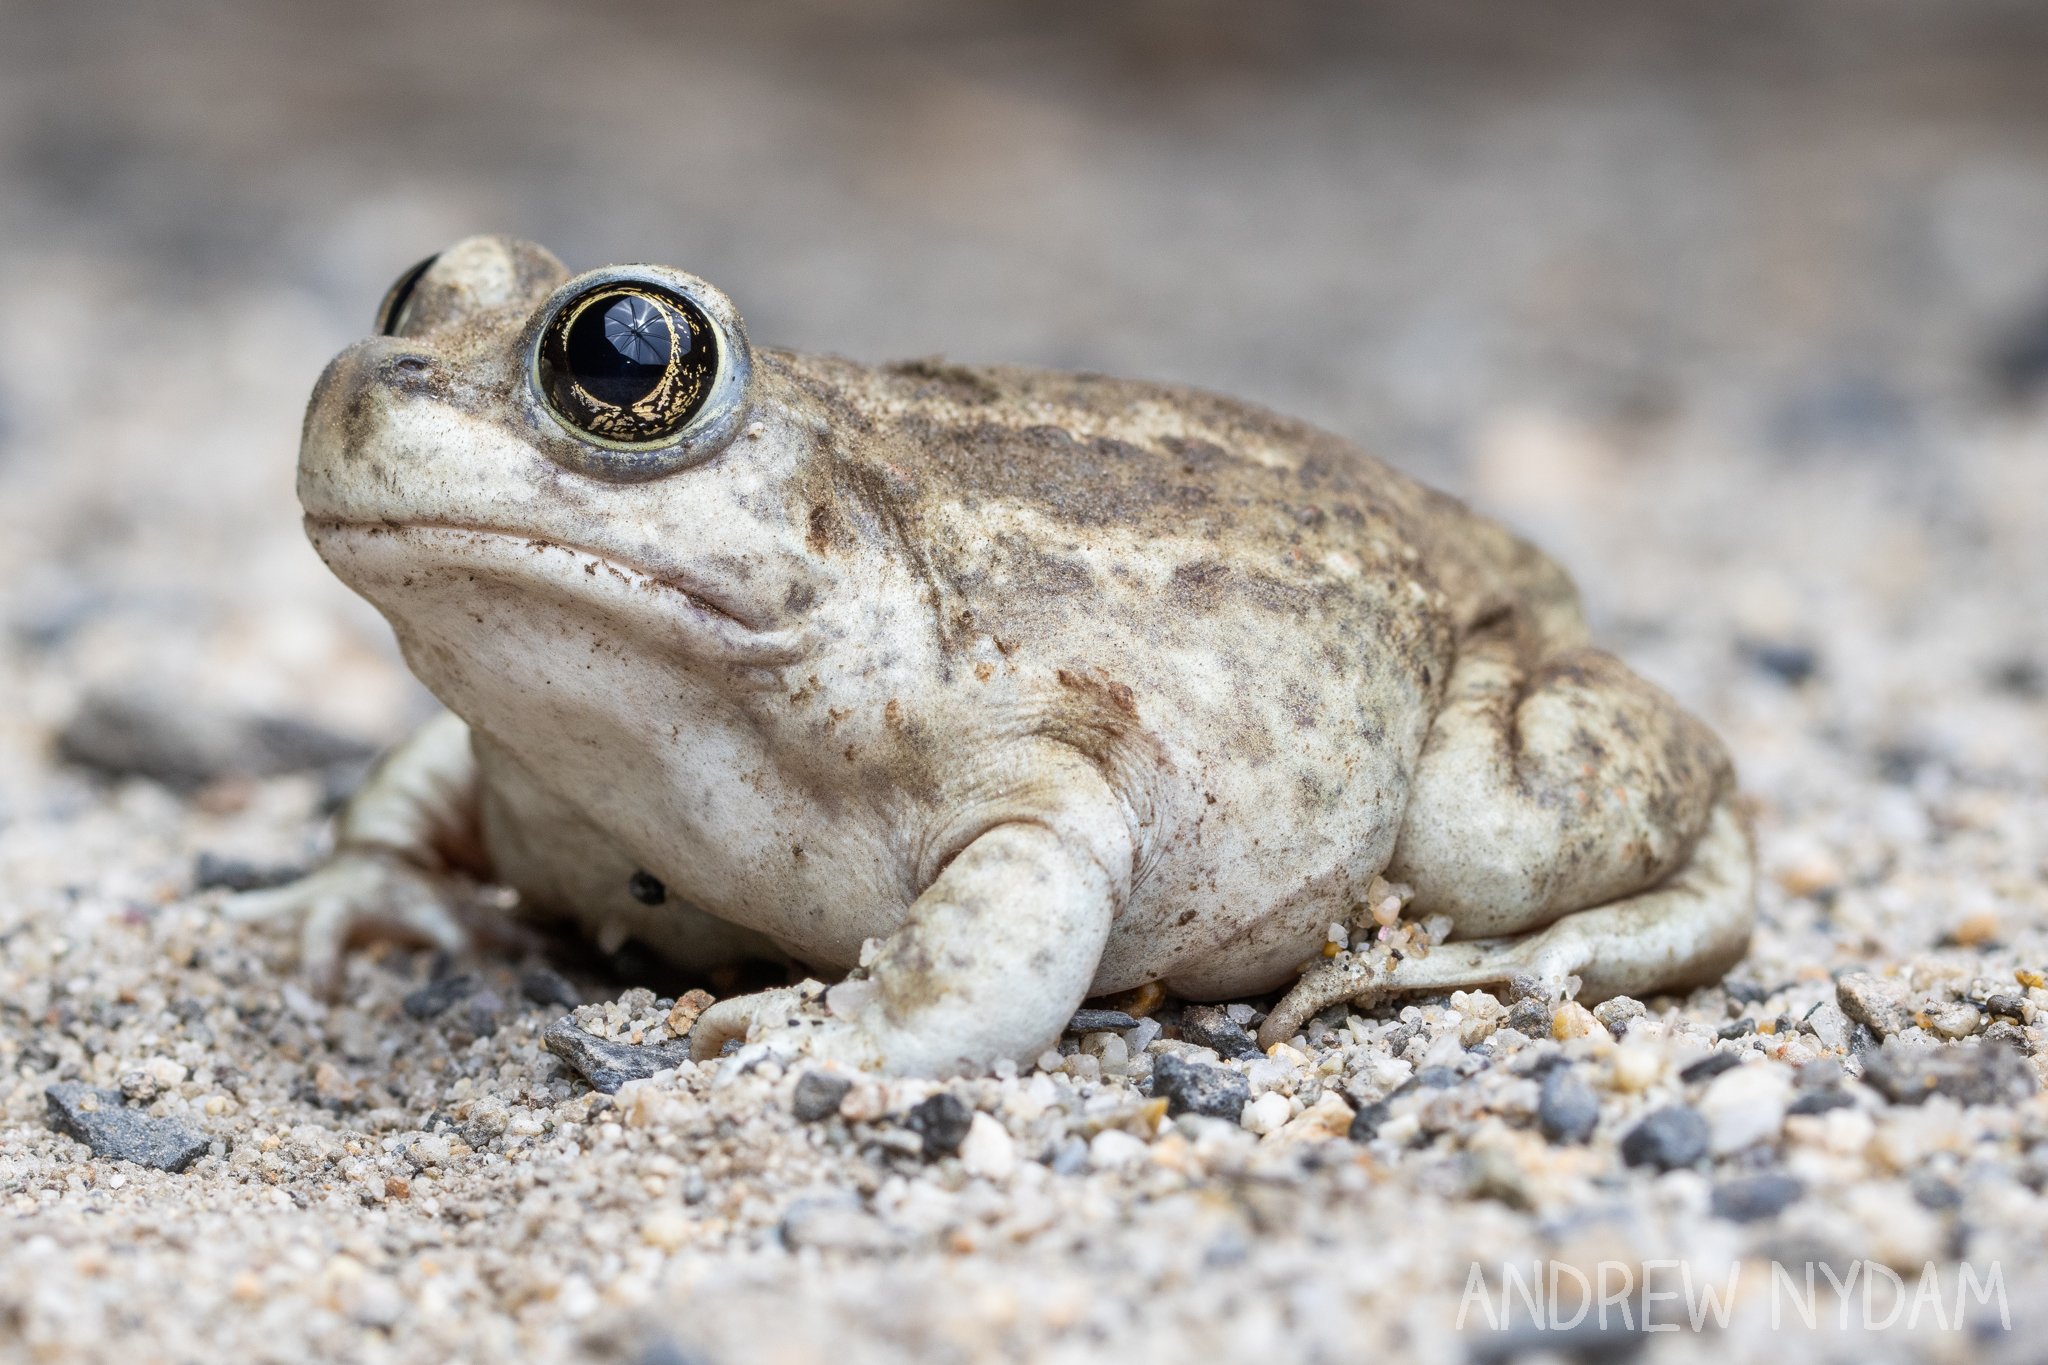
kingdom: Animalia
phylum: Chordata
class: Amphibia
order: Anura
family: Scaphiopodidae
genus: Spea
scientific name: Spea intermontana
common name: Great basin spadefoot
